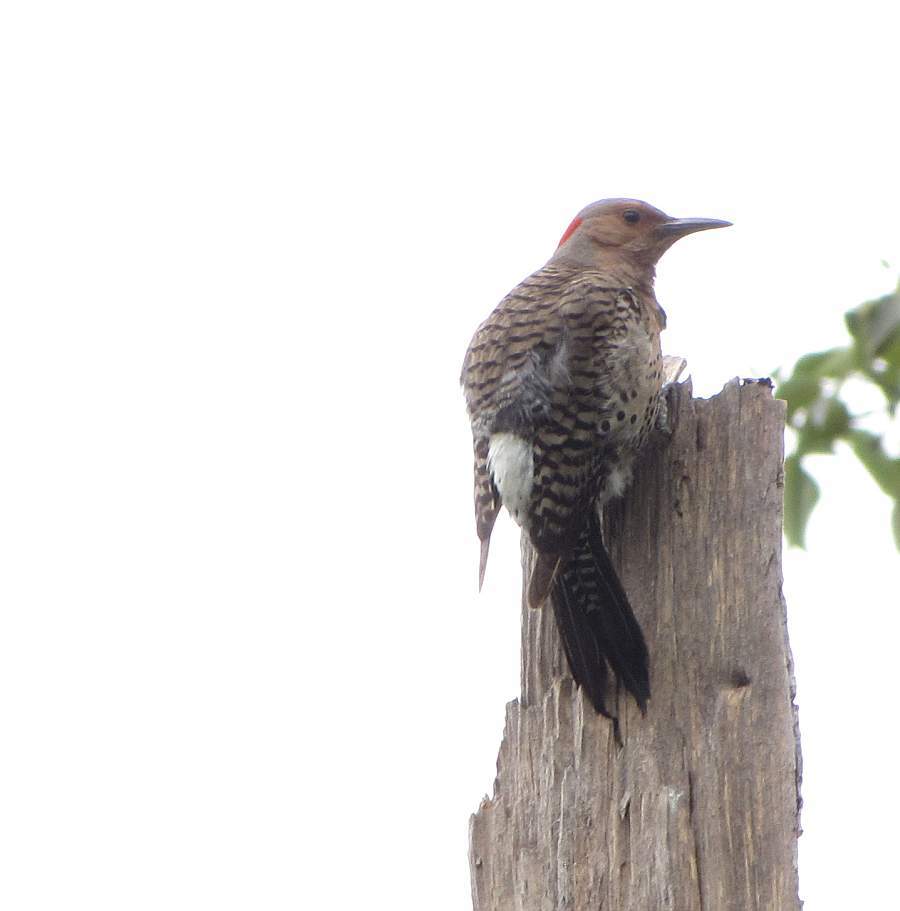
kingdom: Animalia
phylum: Chordata
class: Aves
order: Piciformes
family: Picidae
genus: Colaptes
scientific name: Colaptes auratus
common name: Northern flicker
